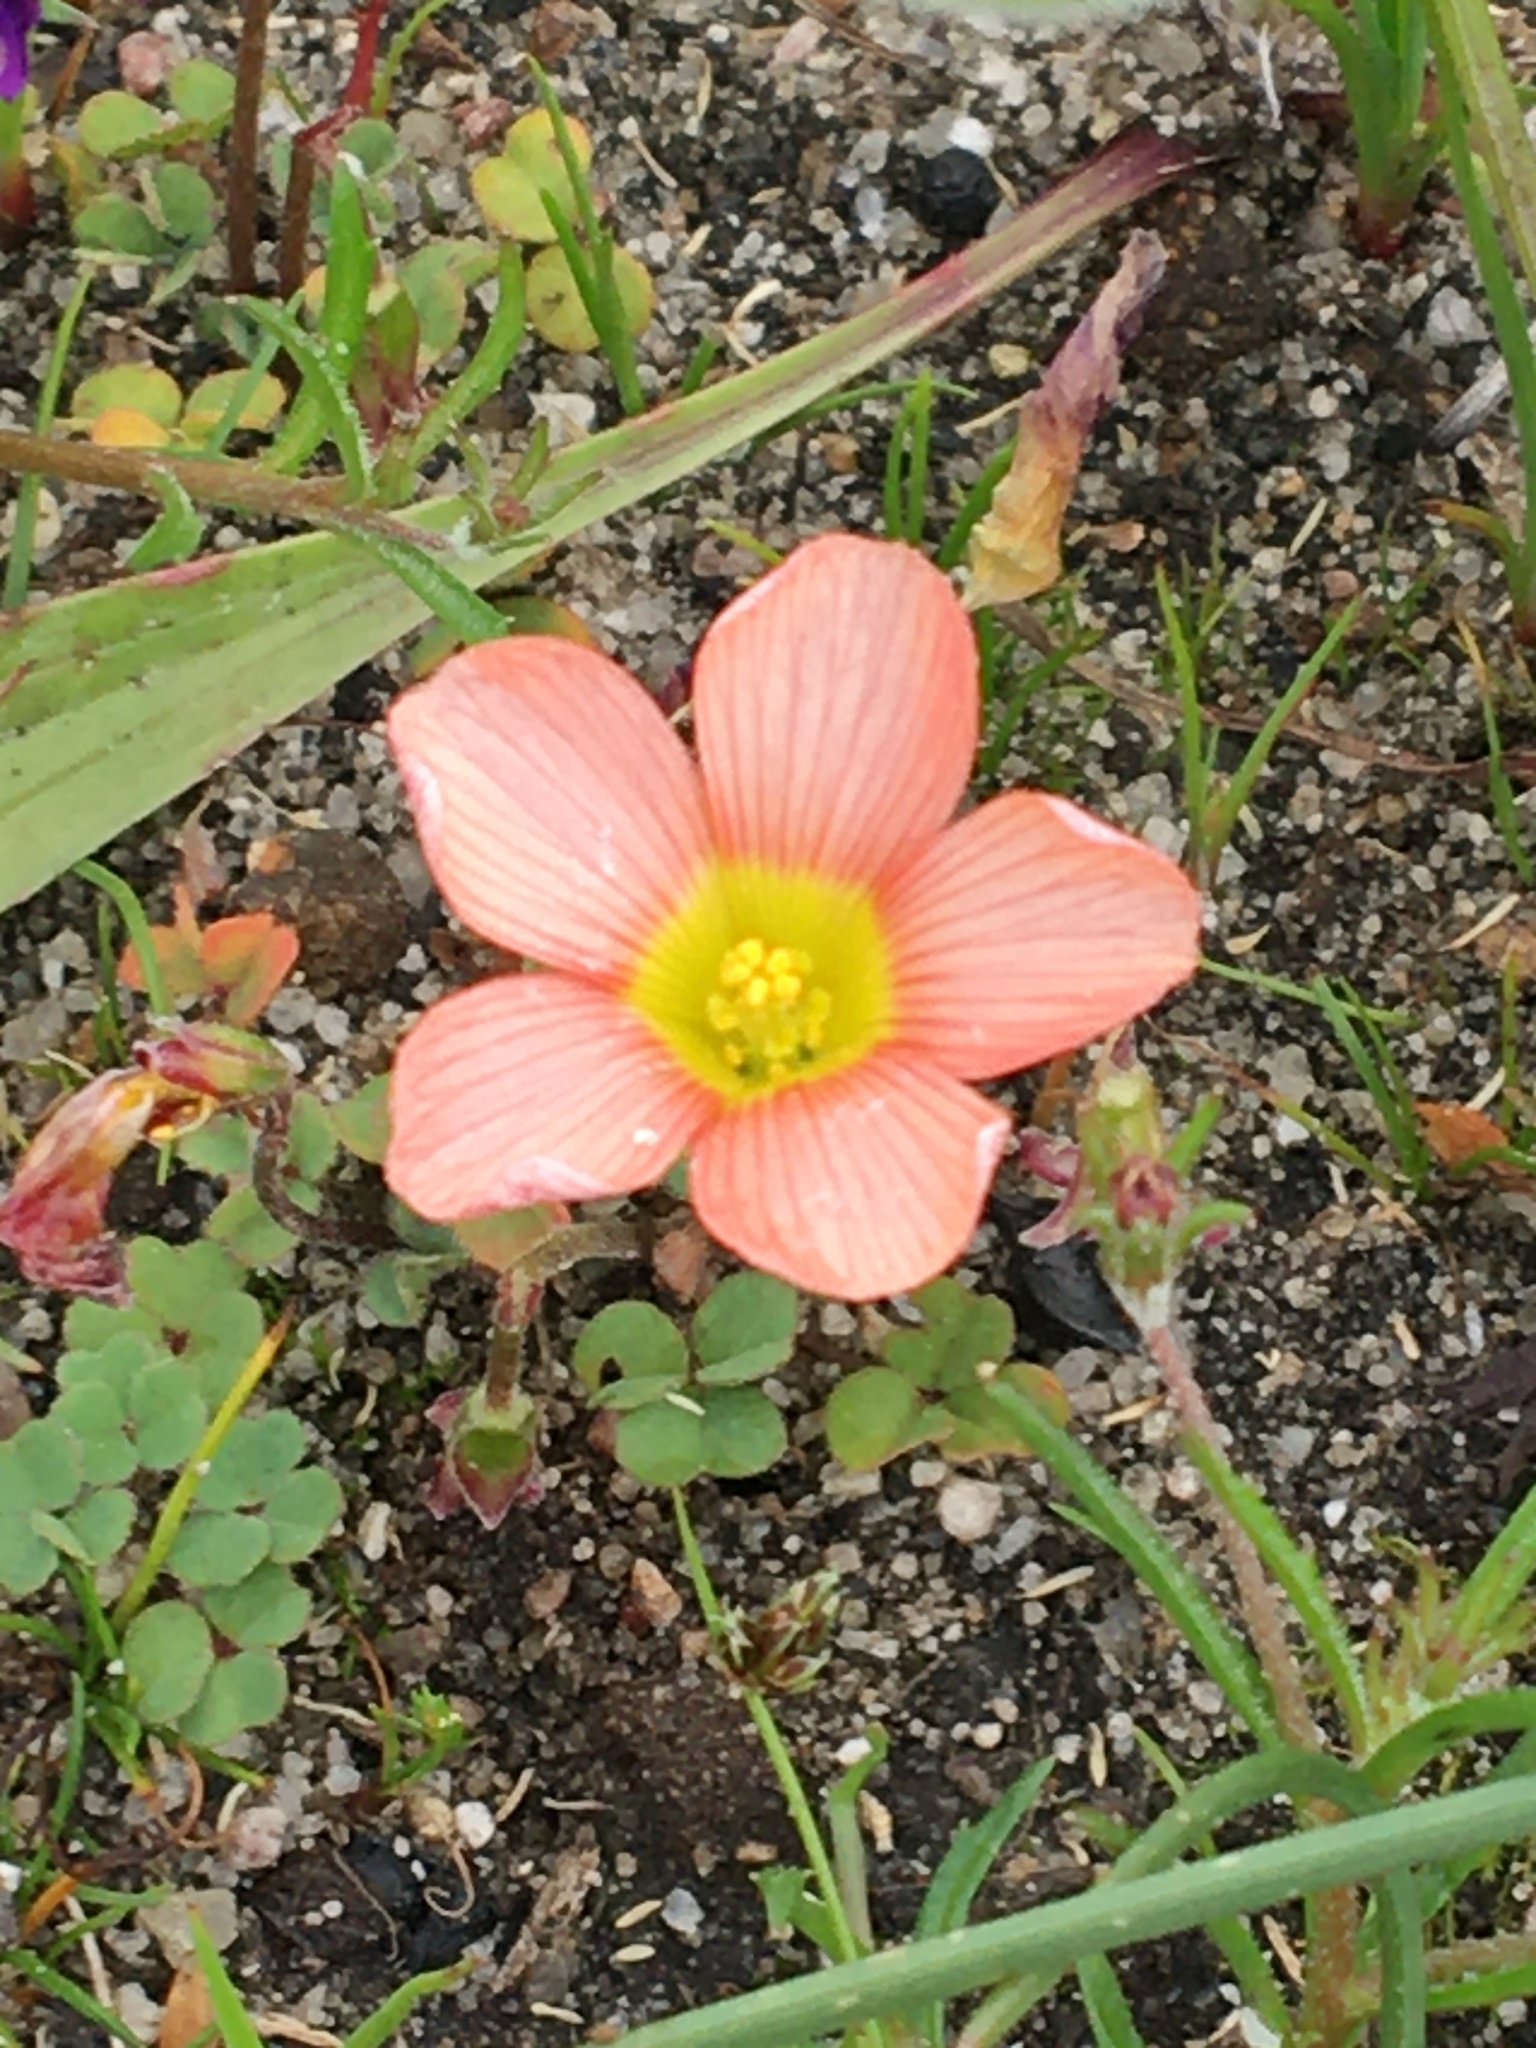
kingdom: Plantae
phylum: Tracheophyta
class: Magnoliopsida
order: Oxalidales
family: Oxalidaceae
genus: Oxalis
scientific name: Oxalis obtusa
